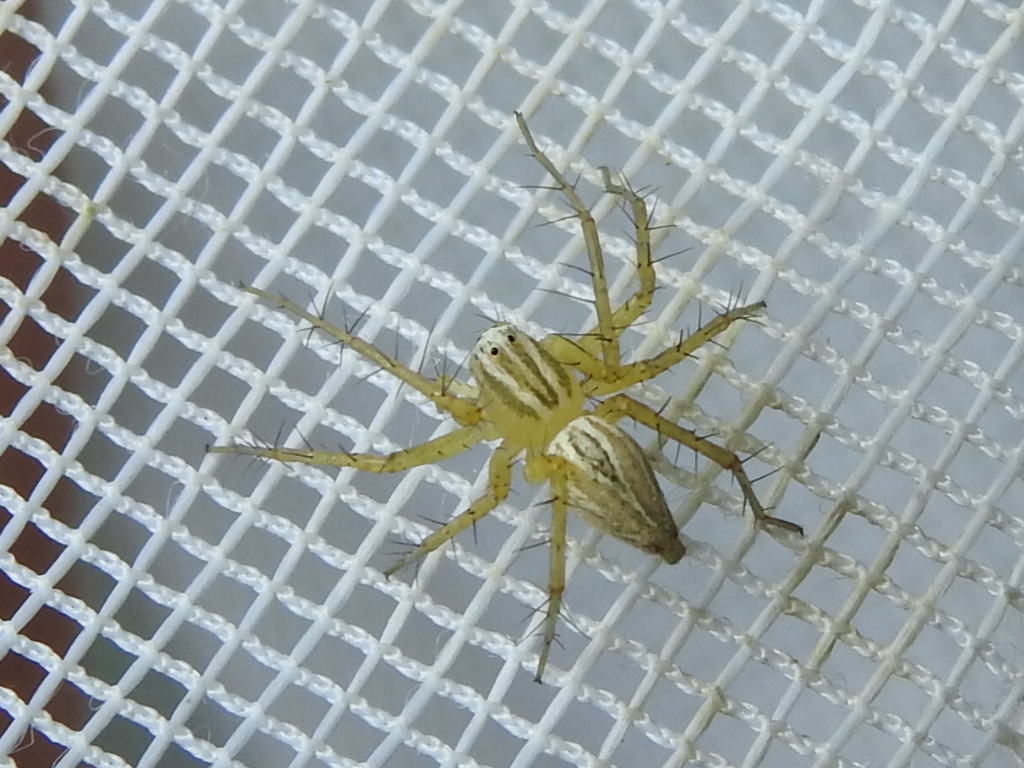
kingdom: Animalia
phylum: Arthropoda
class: Arachnida
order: Araneae
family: Oxyopidae
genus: Oxyopes
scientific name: Oxyopes salticus
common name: Lynx spiders
